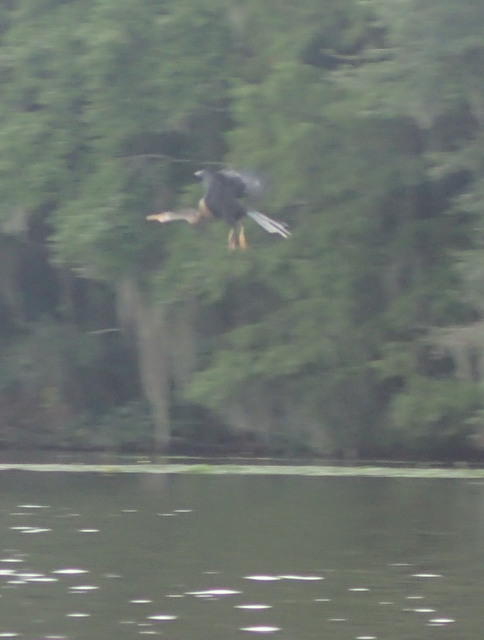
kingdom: Animalia
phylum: Chordata
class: Aves
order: Suliformes
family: Anhingidae
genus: Anhinga
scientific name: Anhinga anhinga
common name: Anhinga
